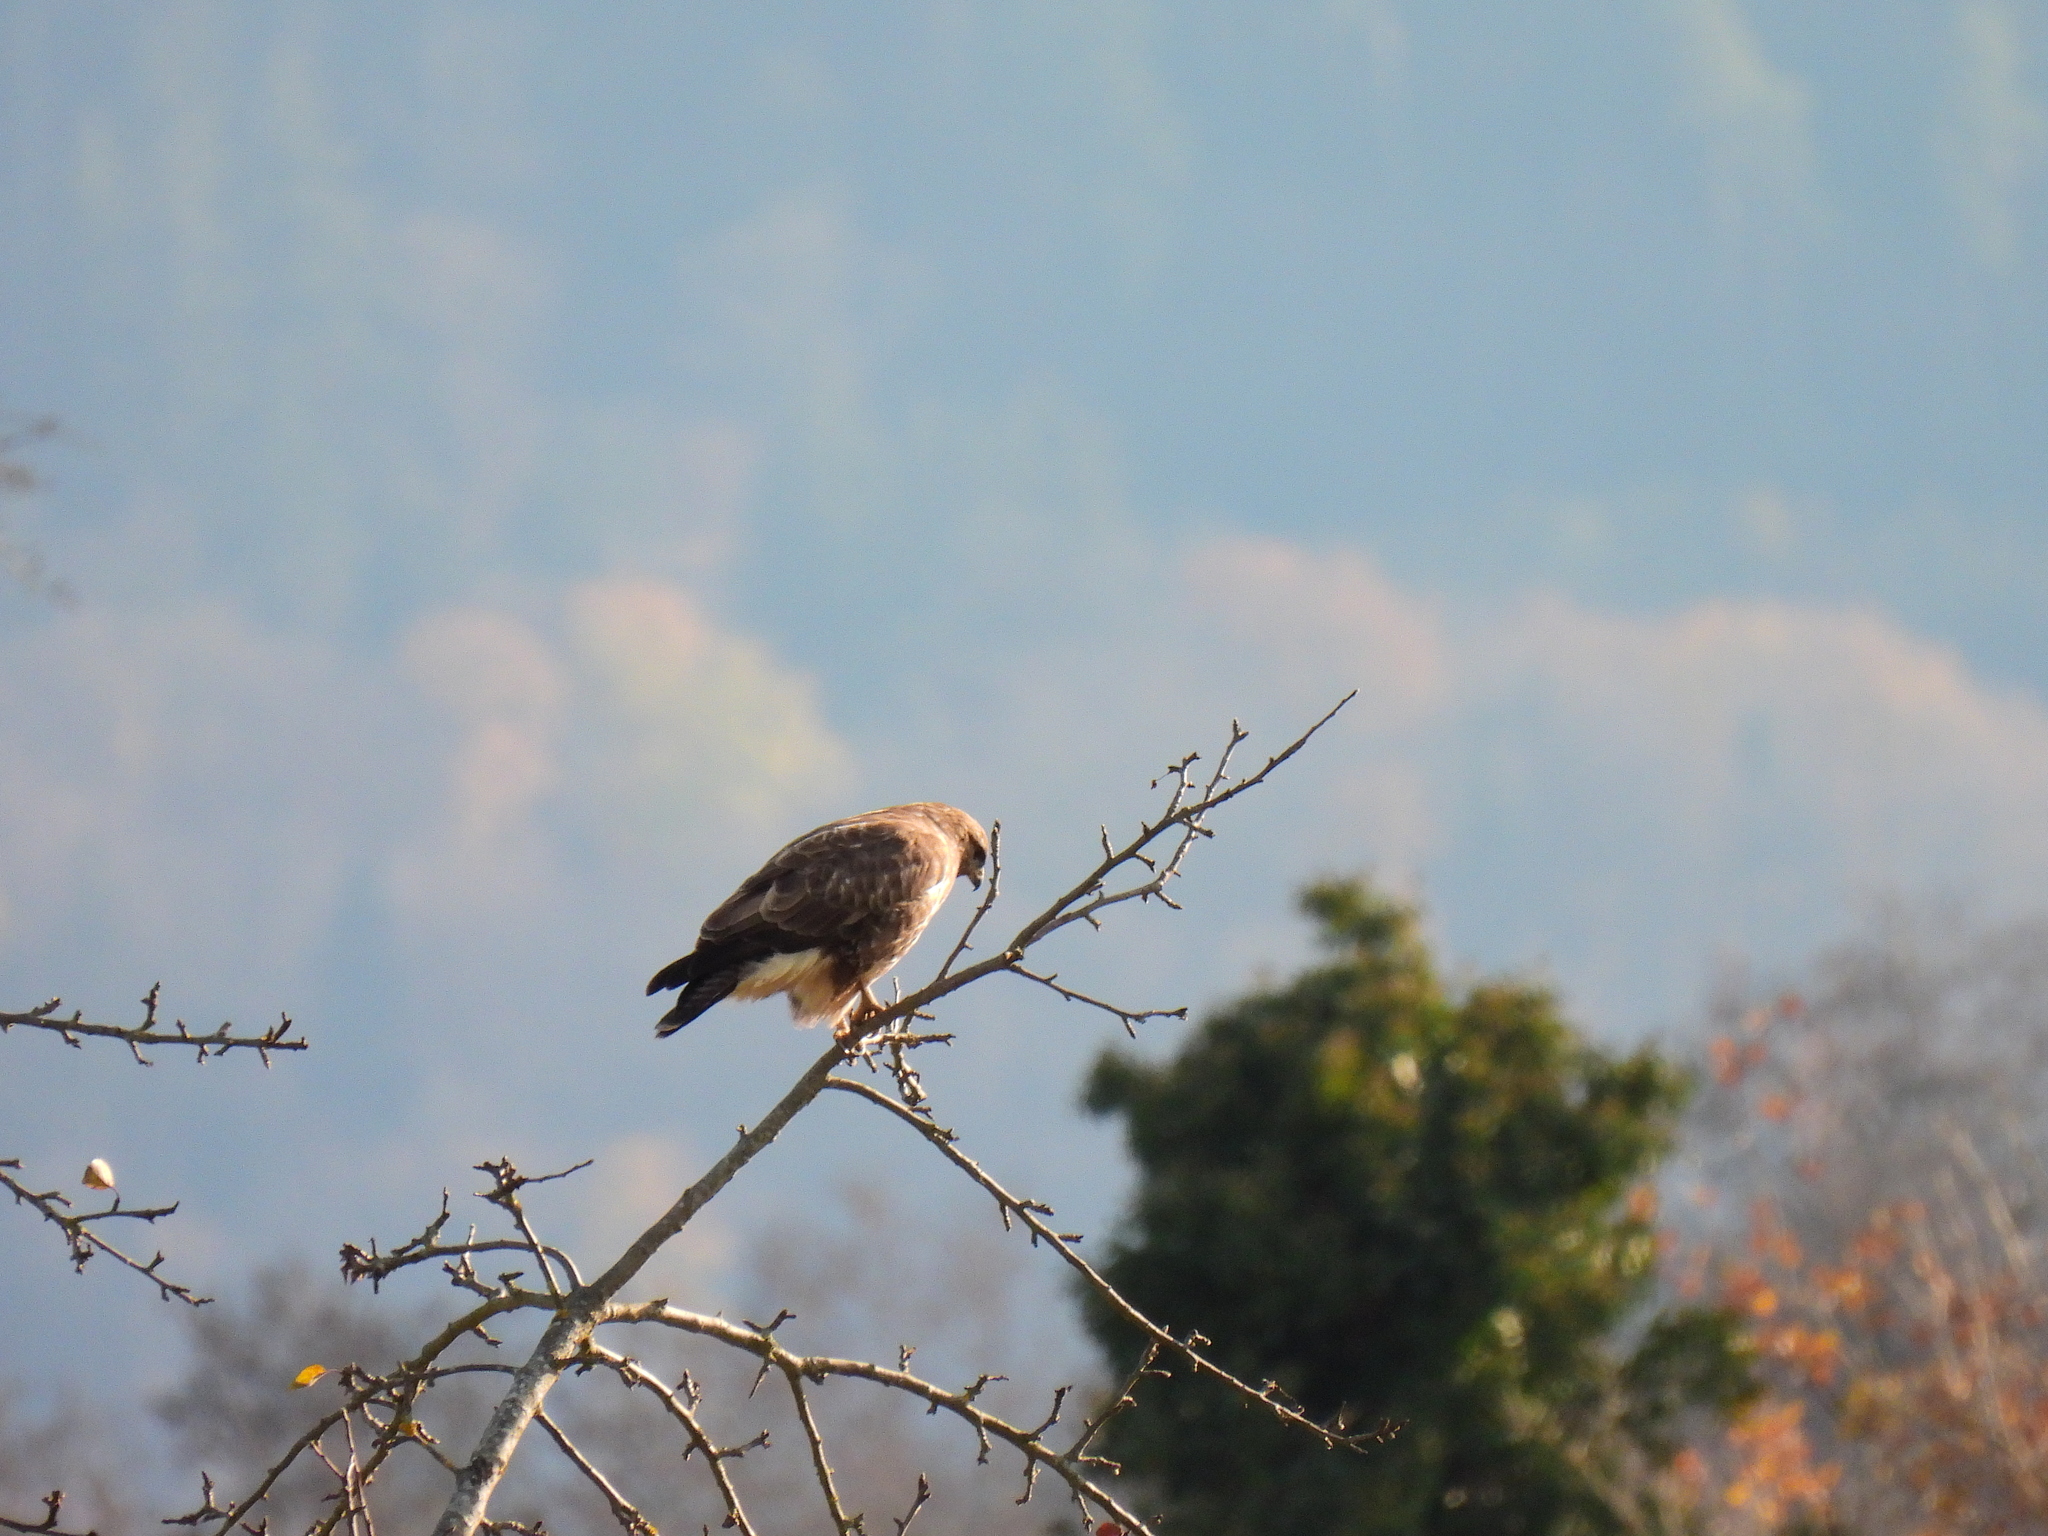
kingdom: Animalia
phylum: Chordata
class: Aves
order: Accipitriformes
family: Accipitridae
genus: Buteo
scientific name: Buteo buteo
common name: Common buzzard
